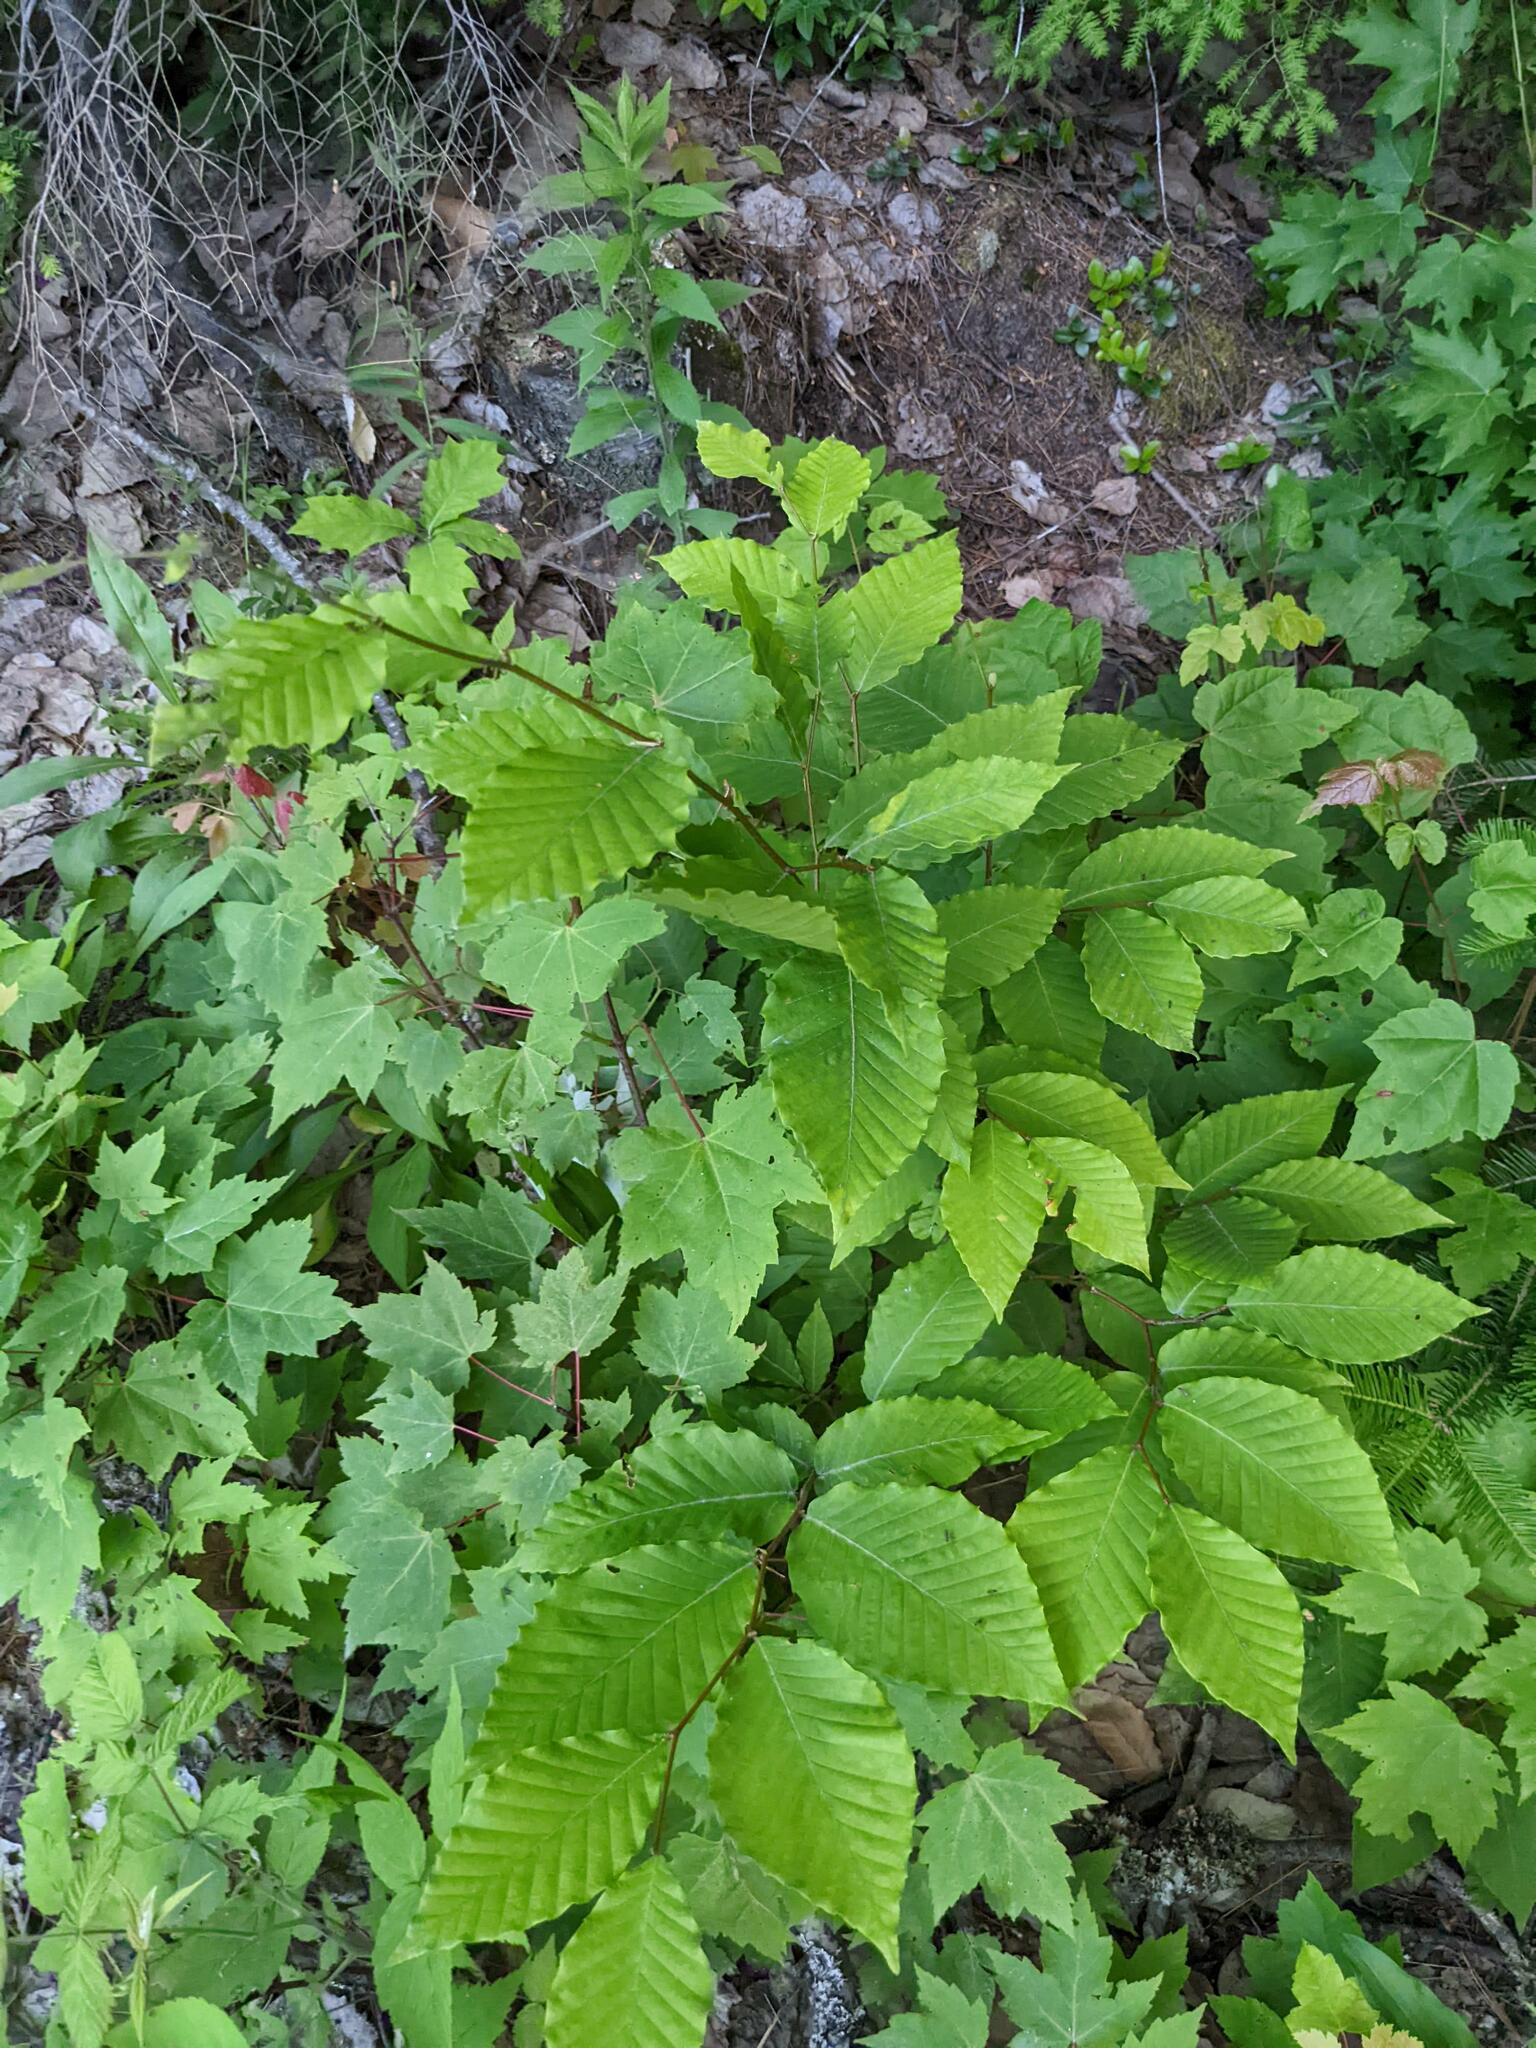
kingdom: Plantae
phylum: Tracheophyta
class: Magnoliopsida
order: Fagales
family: Fagaceae
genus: Fagus
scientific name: Fagus grandifolia
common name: American beech
